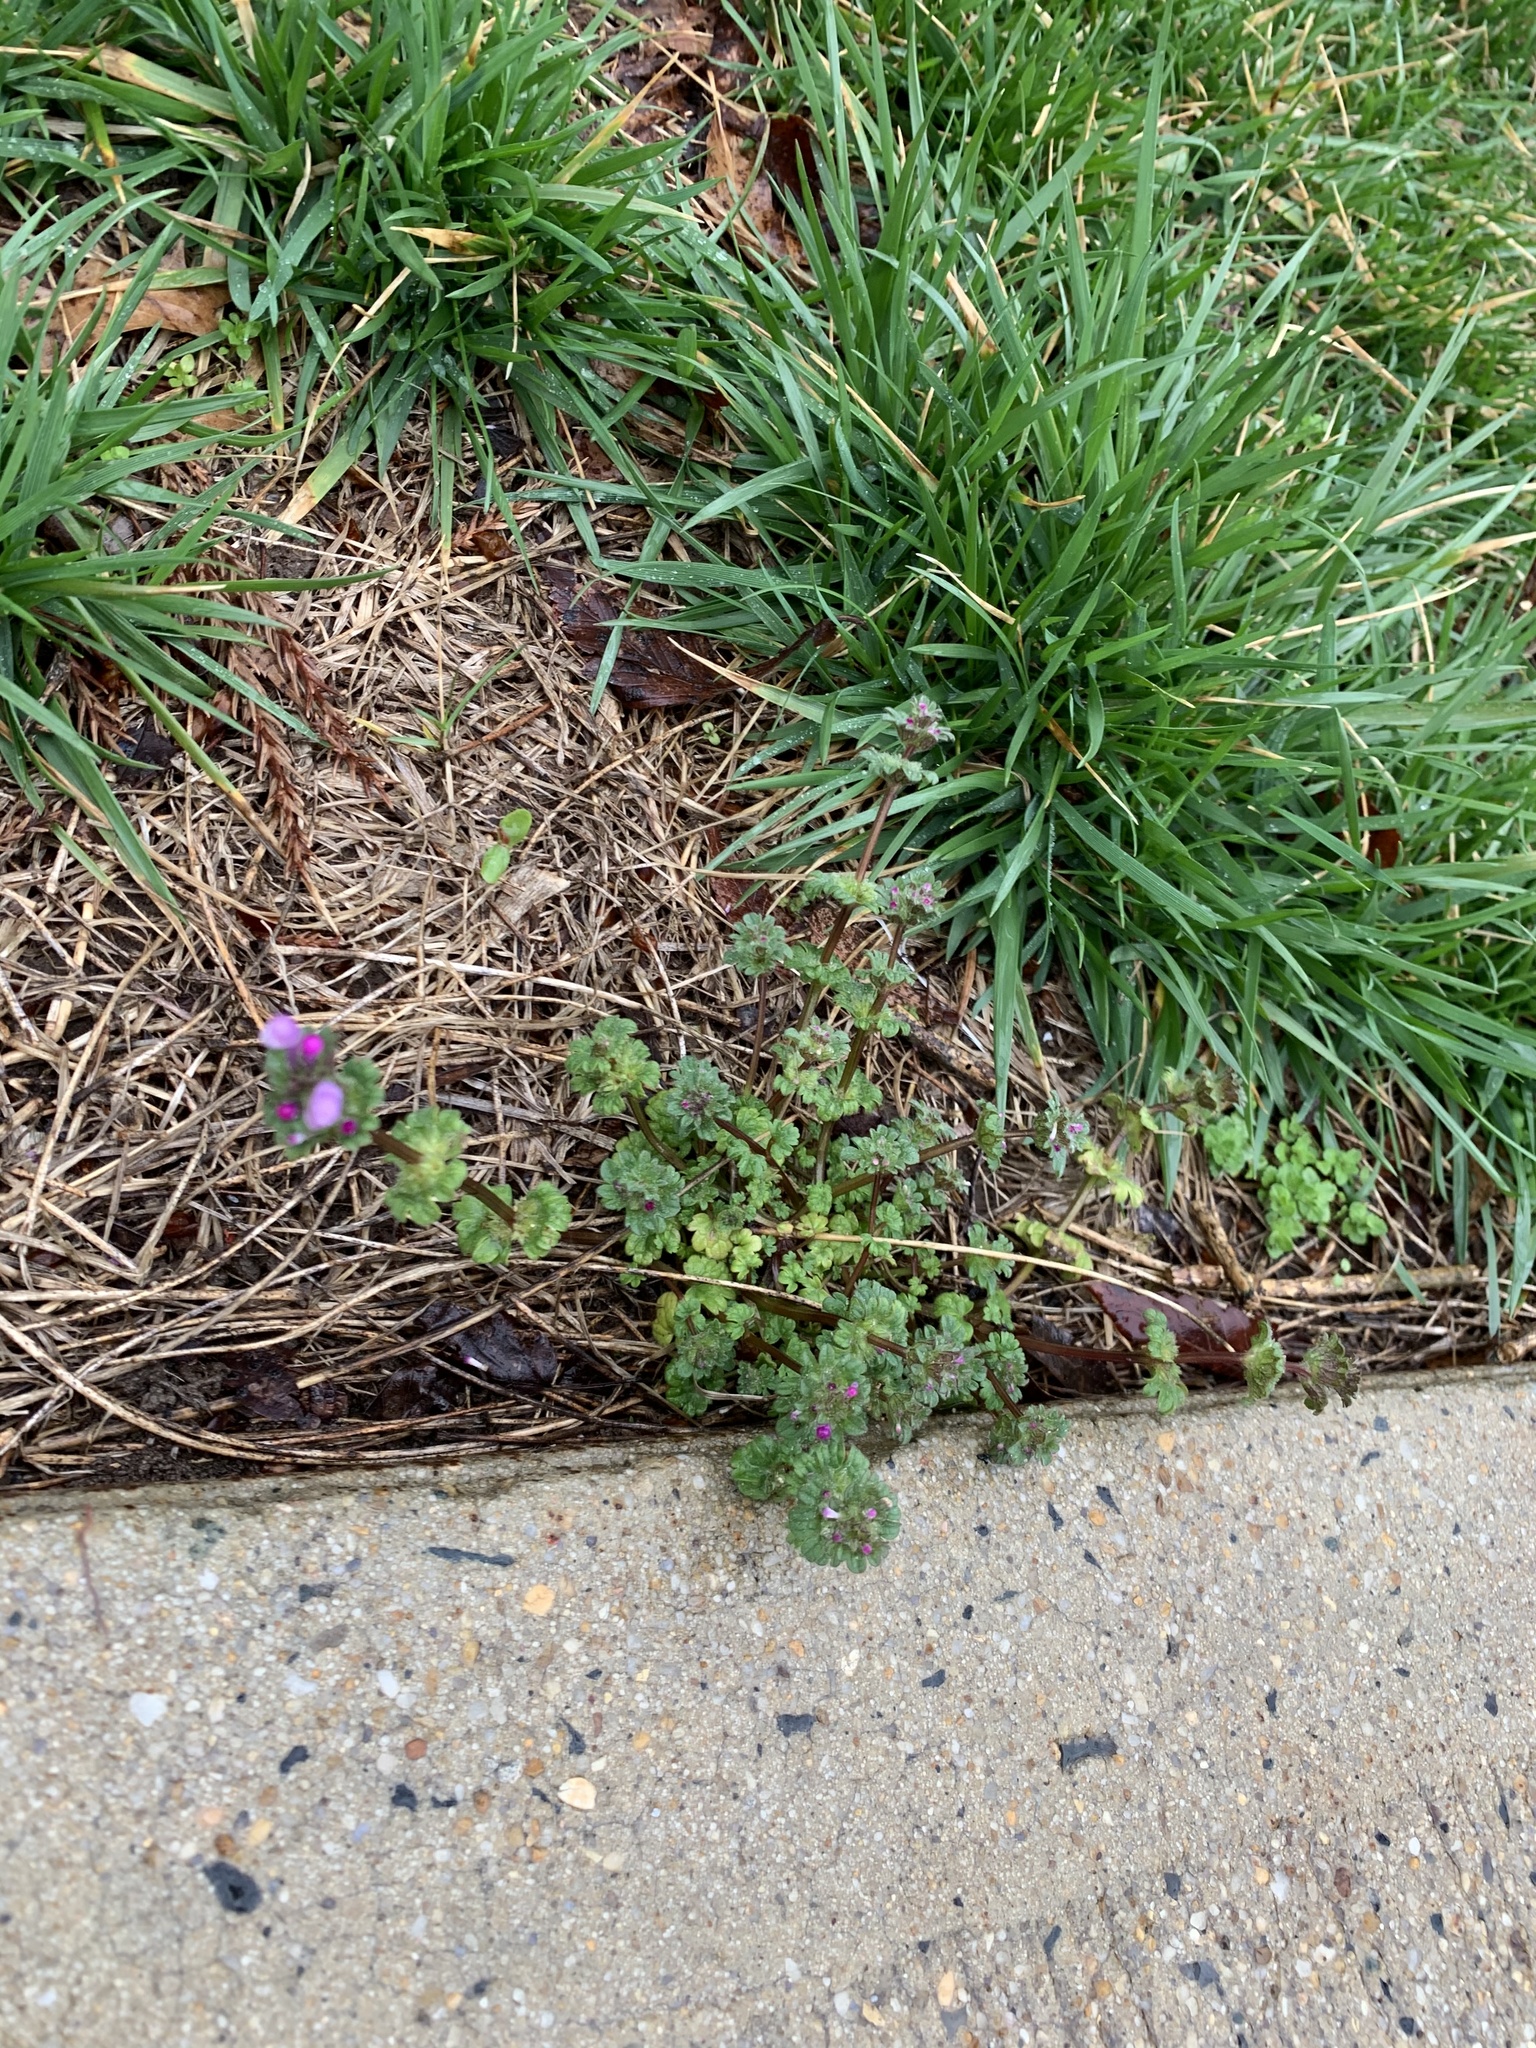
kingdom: Plantae
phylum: Tracheophyta
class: Magnoliopsida
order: Lamiales
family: Lamiaceae
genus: Lamium
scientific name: Lamium purpureum
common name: Red dead-nettle
